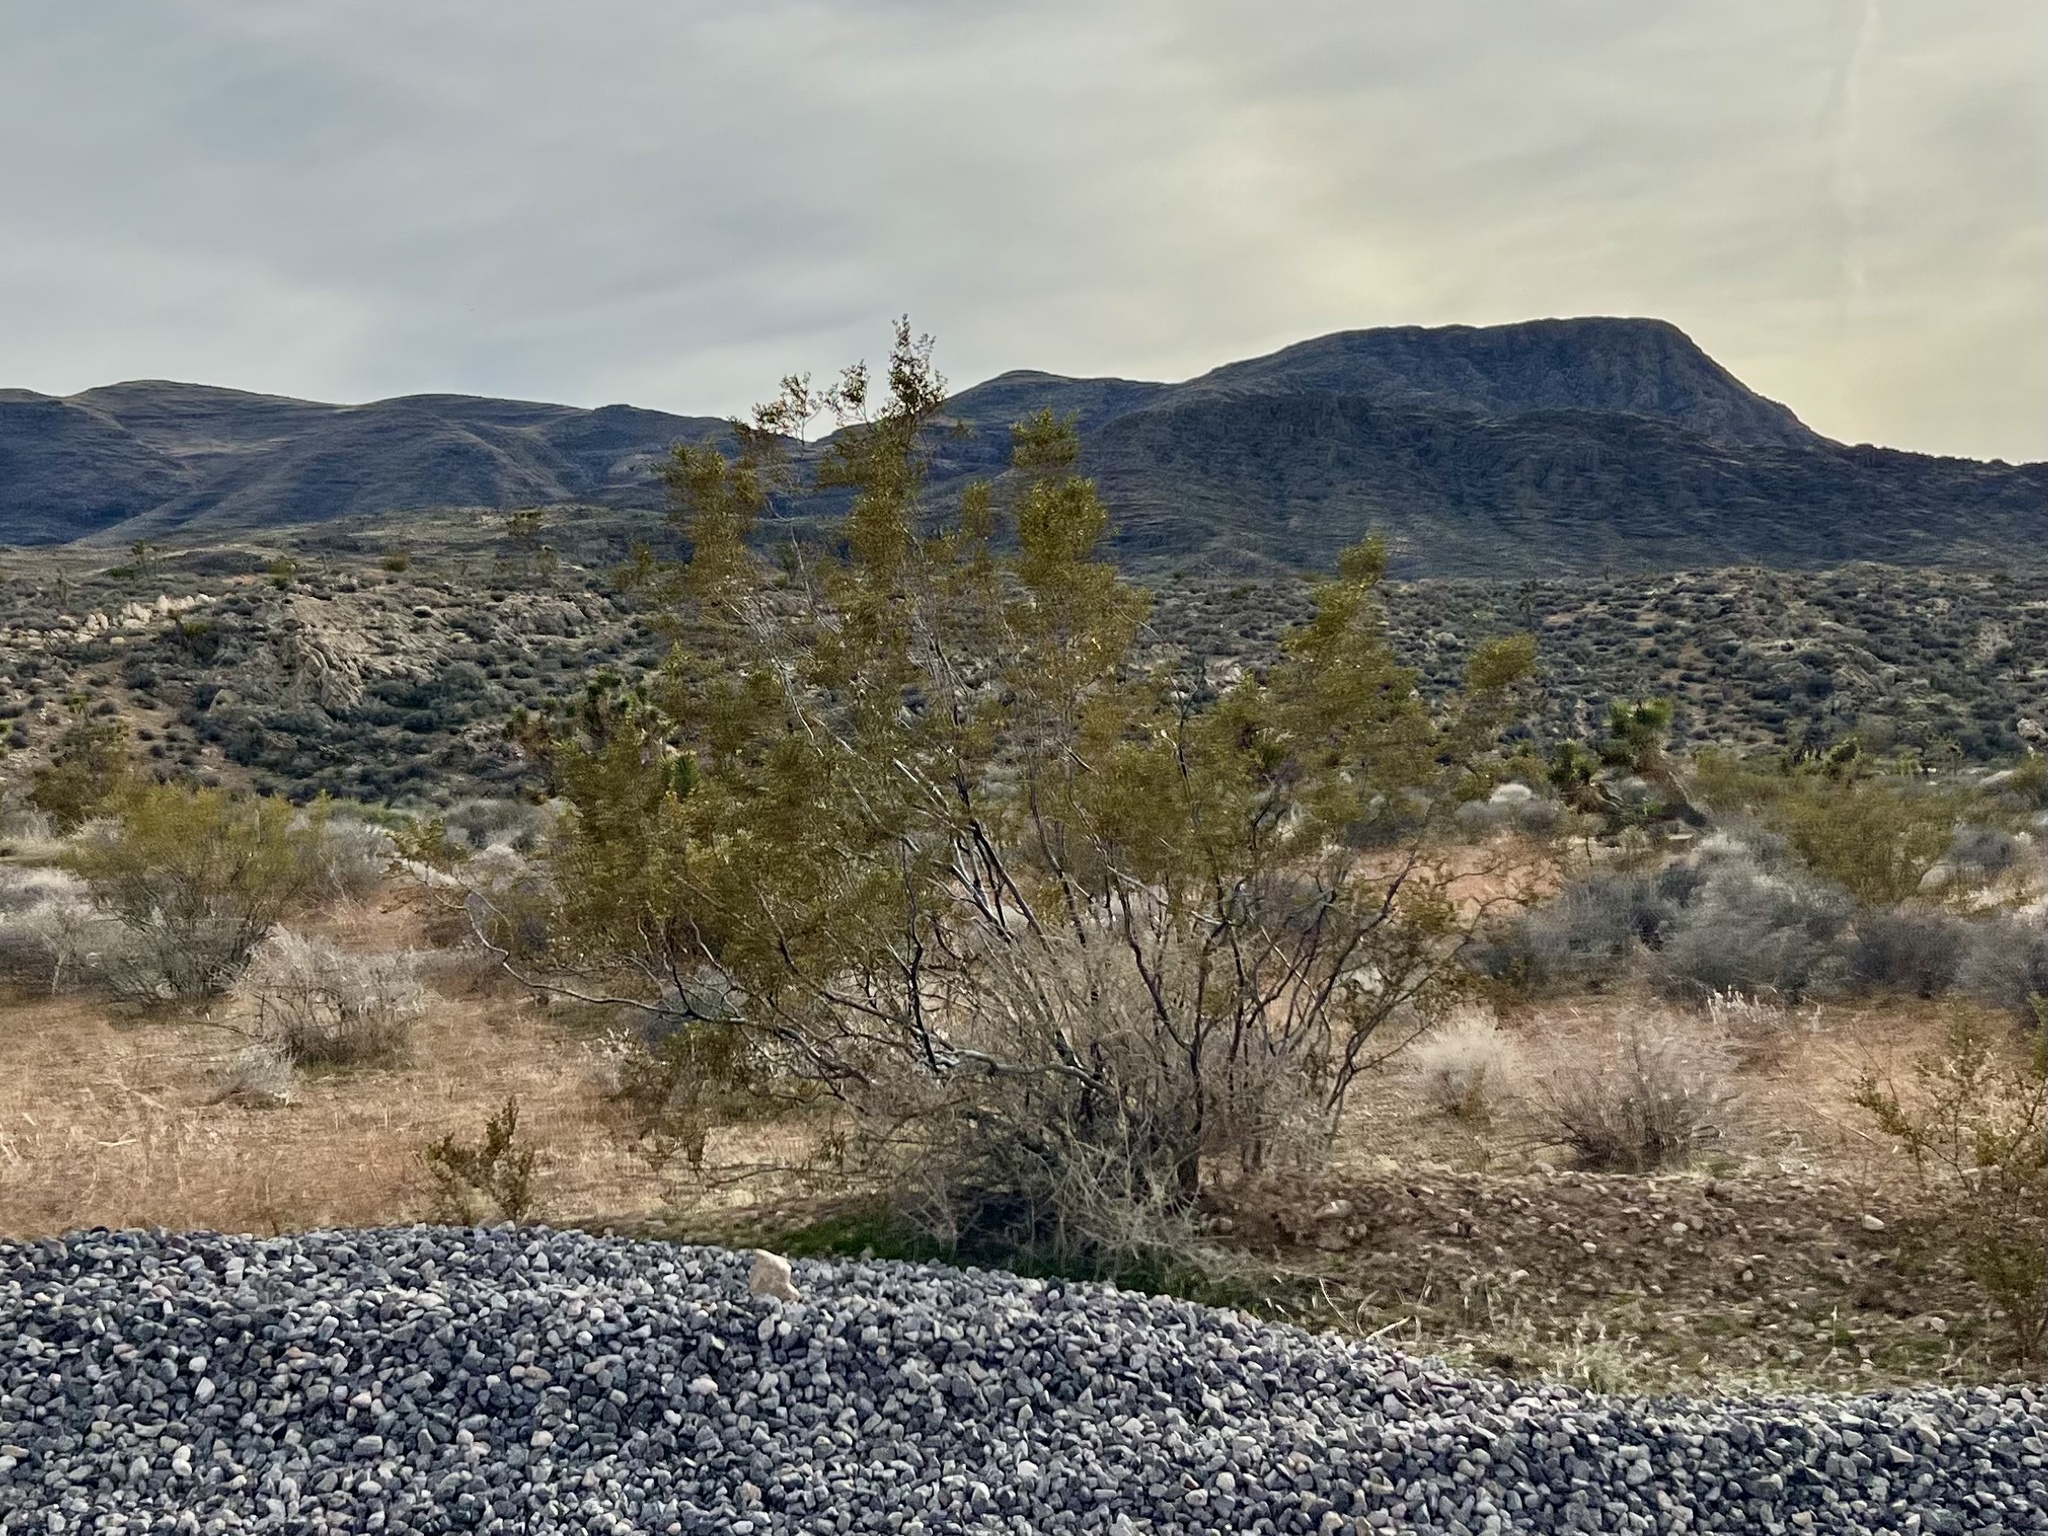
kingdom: Plantae
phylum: Tracheophyta
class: Magnoliopsida
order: Zygophyllales
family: Zygophyllaceae
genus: Larrea
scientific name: Larrea tridentata
